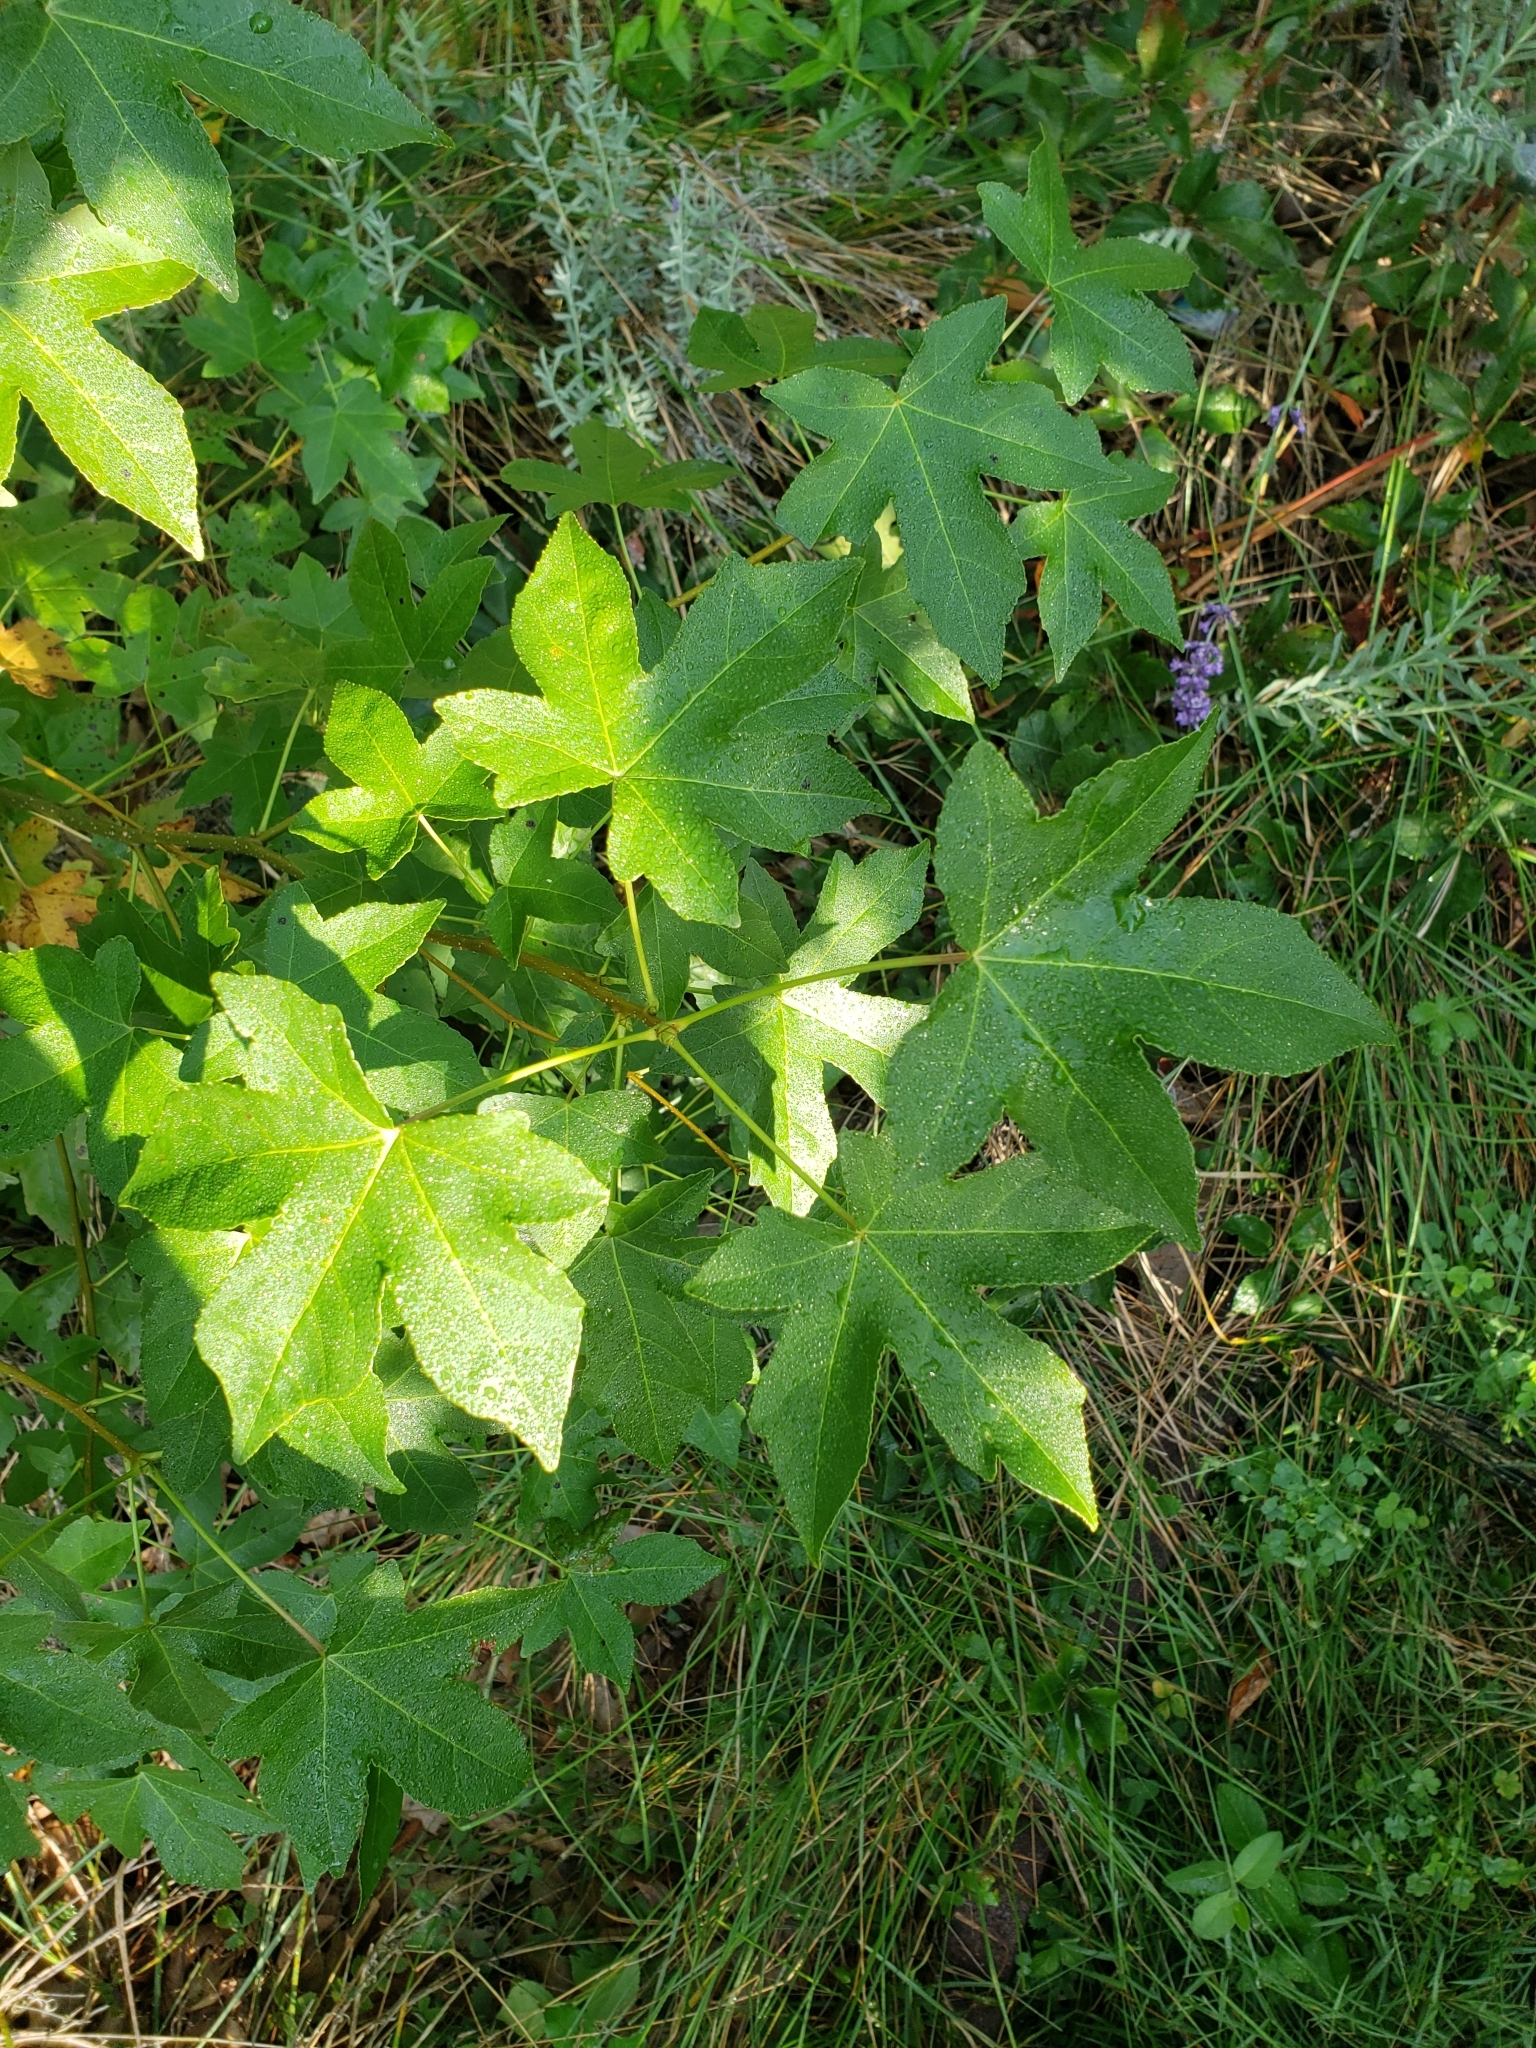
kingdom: Plantae
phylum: Tracheophyta
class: Magnoliopsida
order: Saxifragales
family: Altingiaceae
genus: Liquidambar
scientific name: Liquidambar styraciflua
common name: Sweet gum
